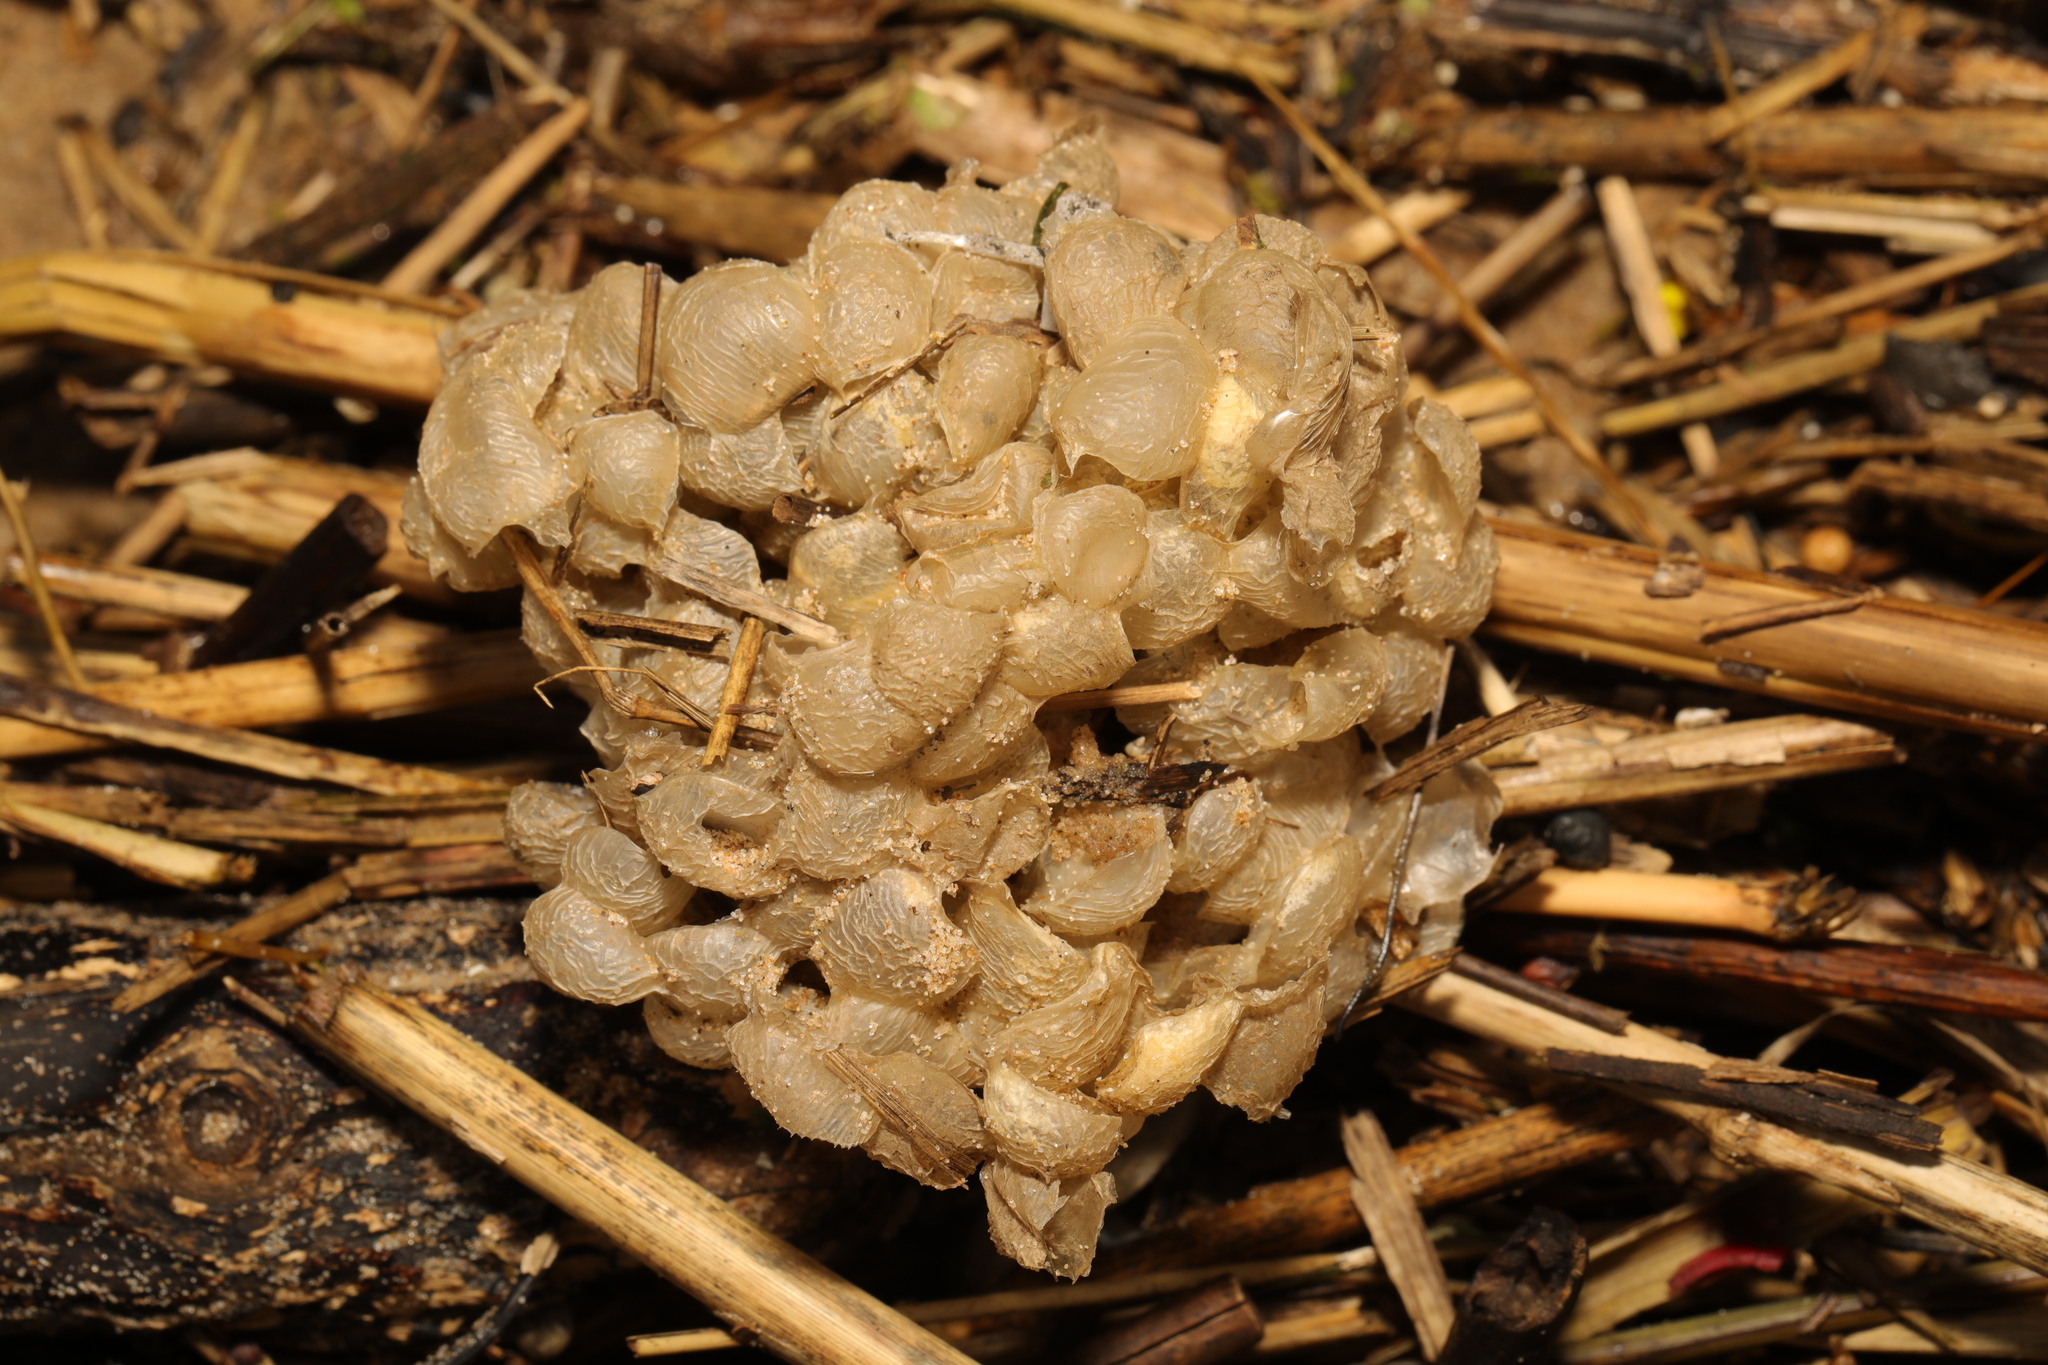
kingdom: Animalia
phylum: Mollusca
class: Gastropoda
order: Neogastropoda
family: Buccinidae
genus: Buccinum
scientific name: Buccinum undatum
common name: Common whelk
